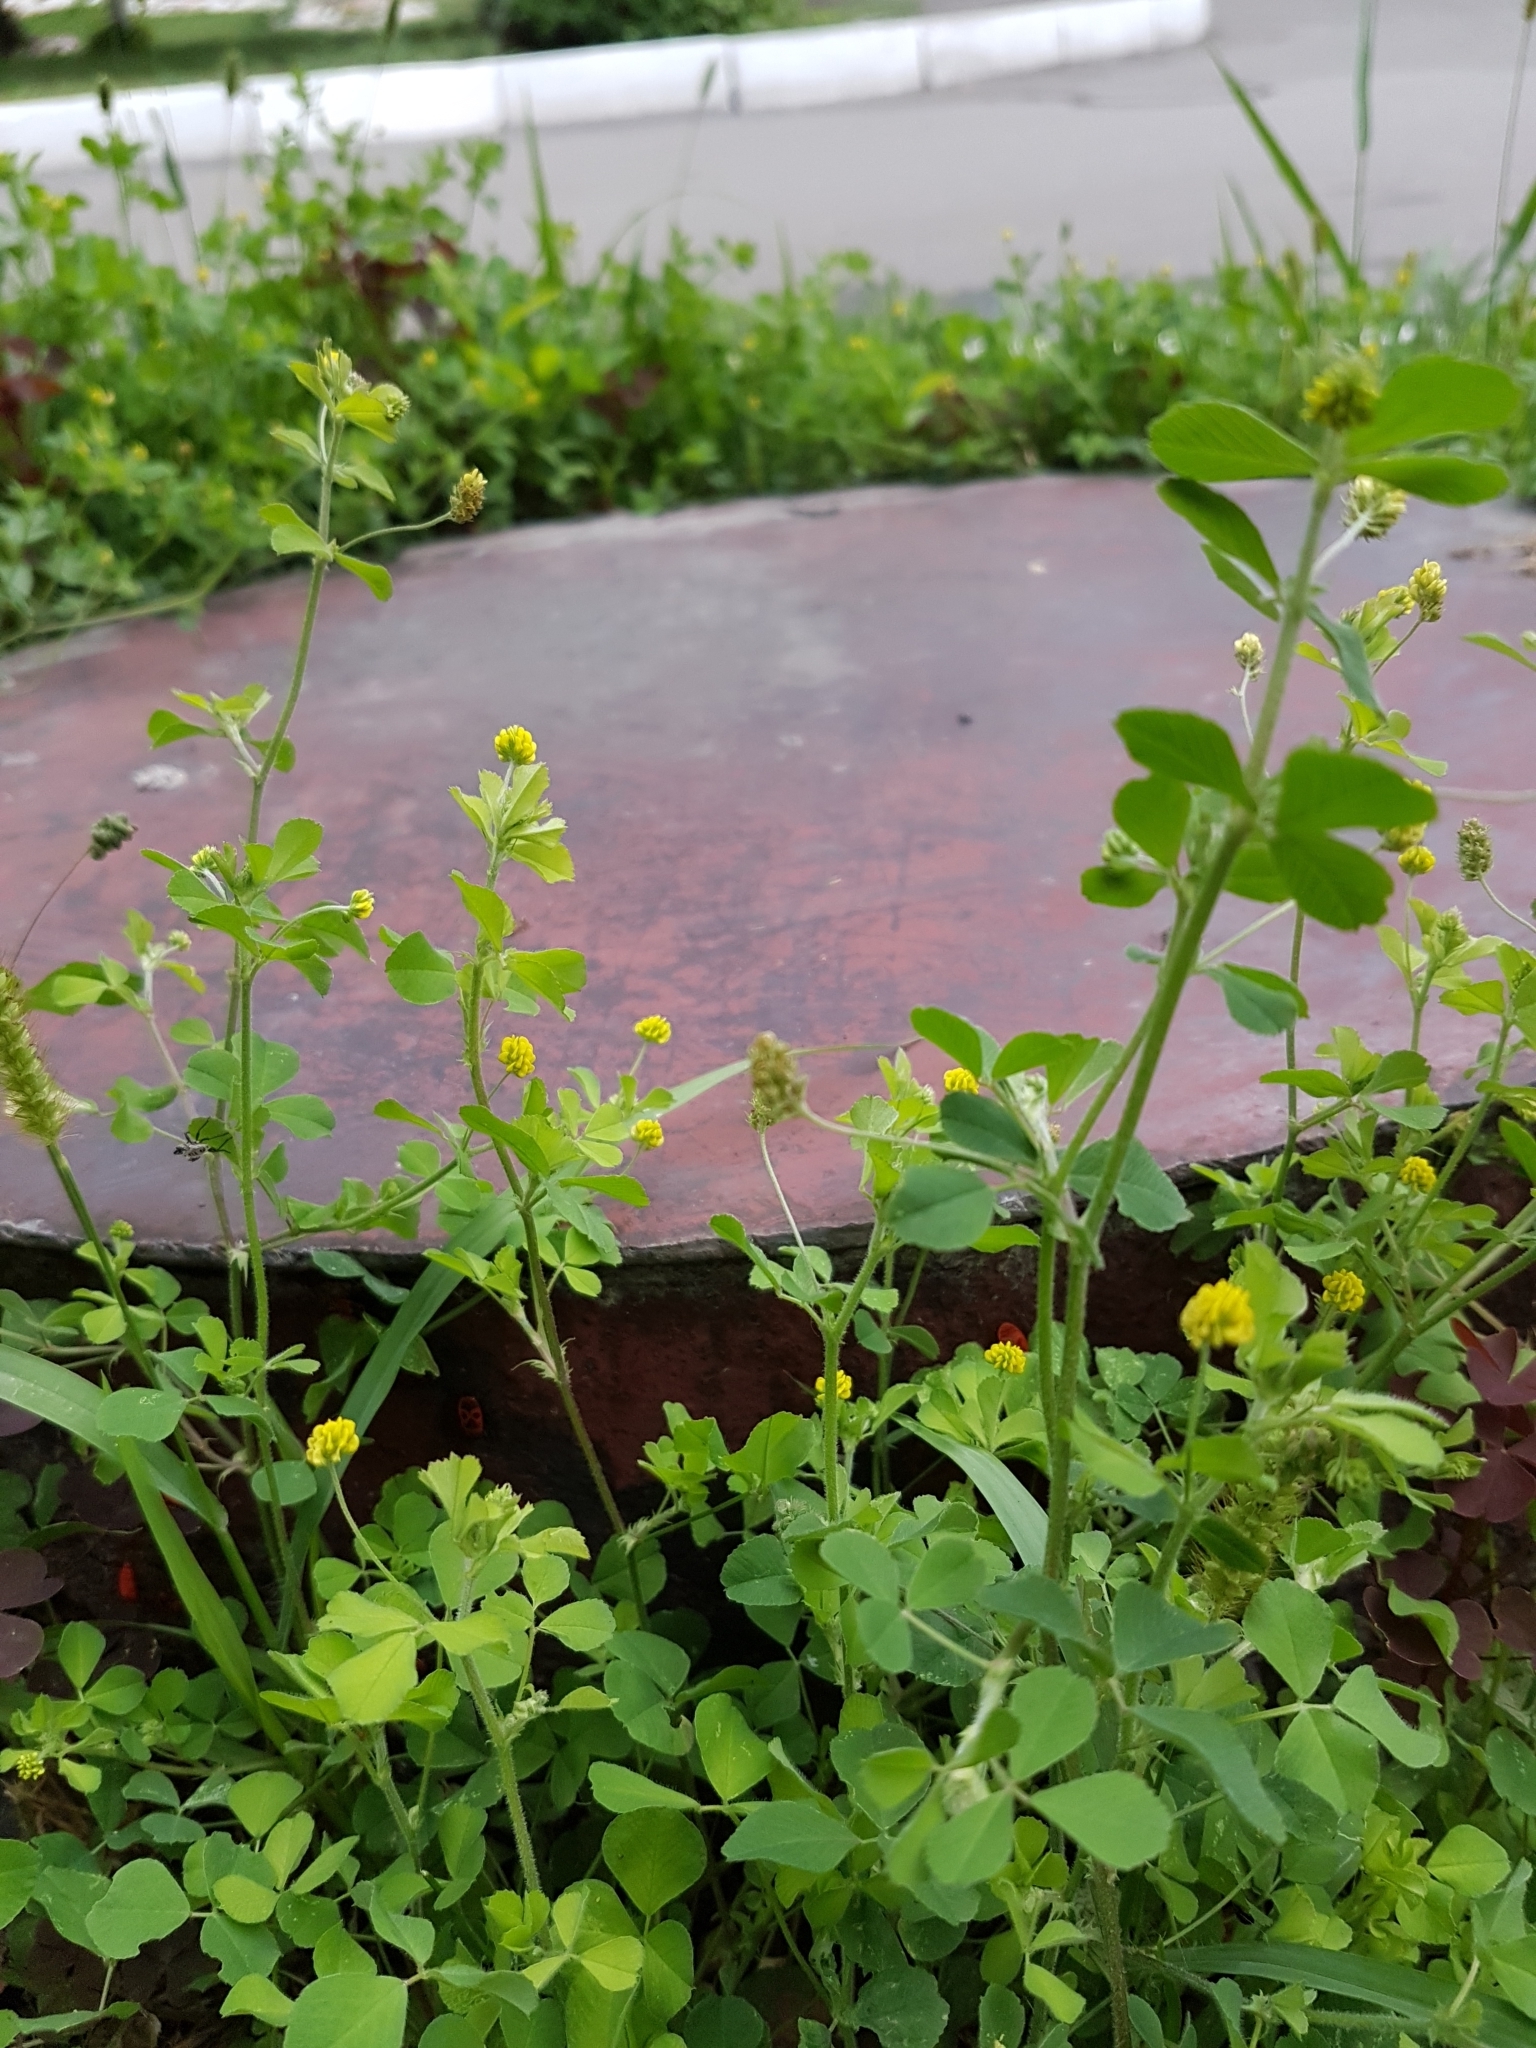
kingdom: Plantae
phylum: Tracheophyta
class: Magnoliopsida
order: Fabales
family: Fabaceae
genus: Medicago
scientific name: Medicago lupulina
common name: Black medick
